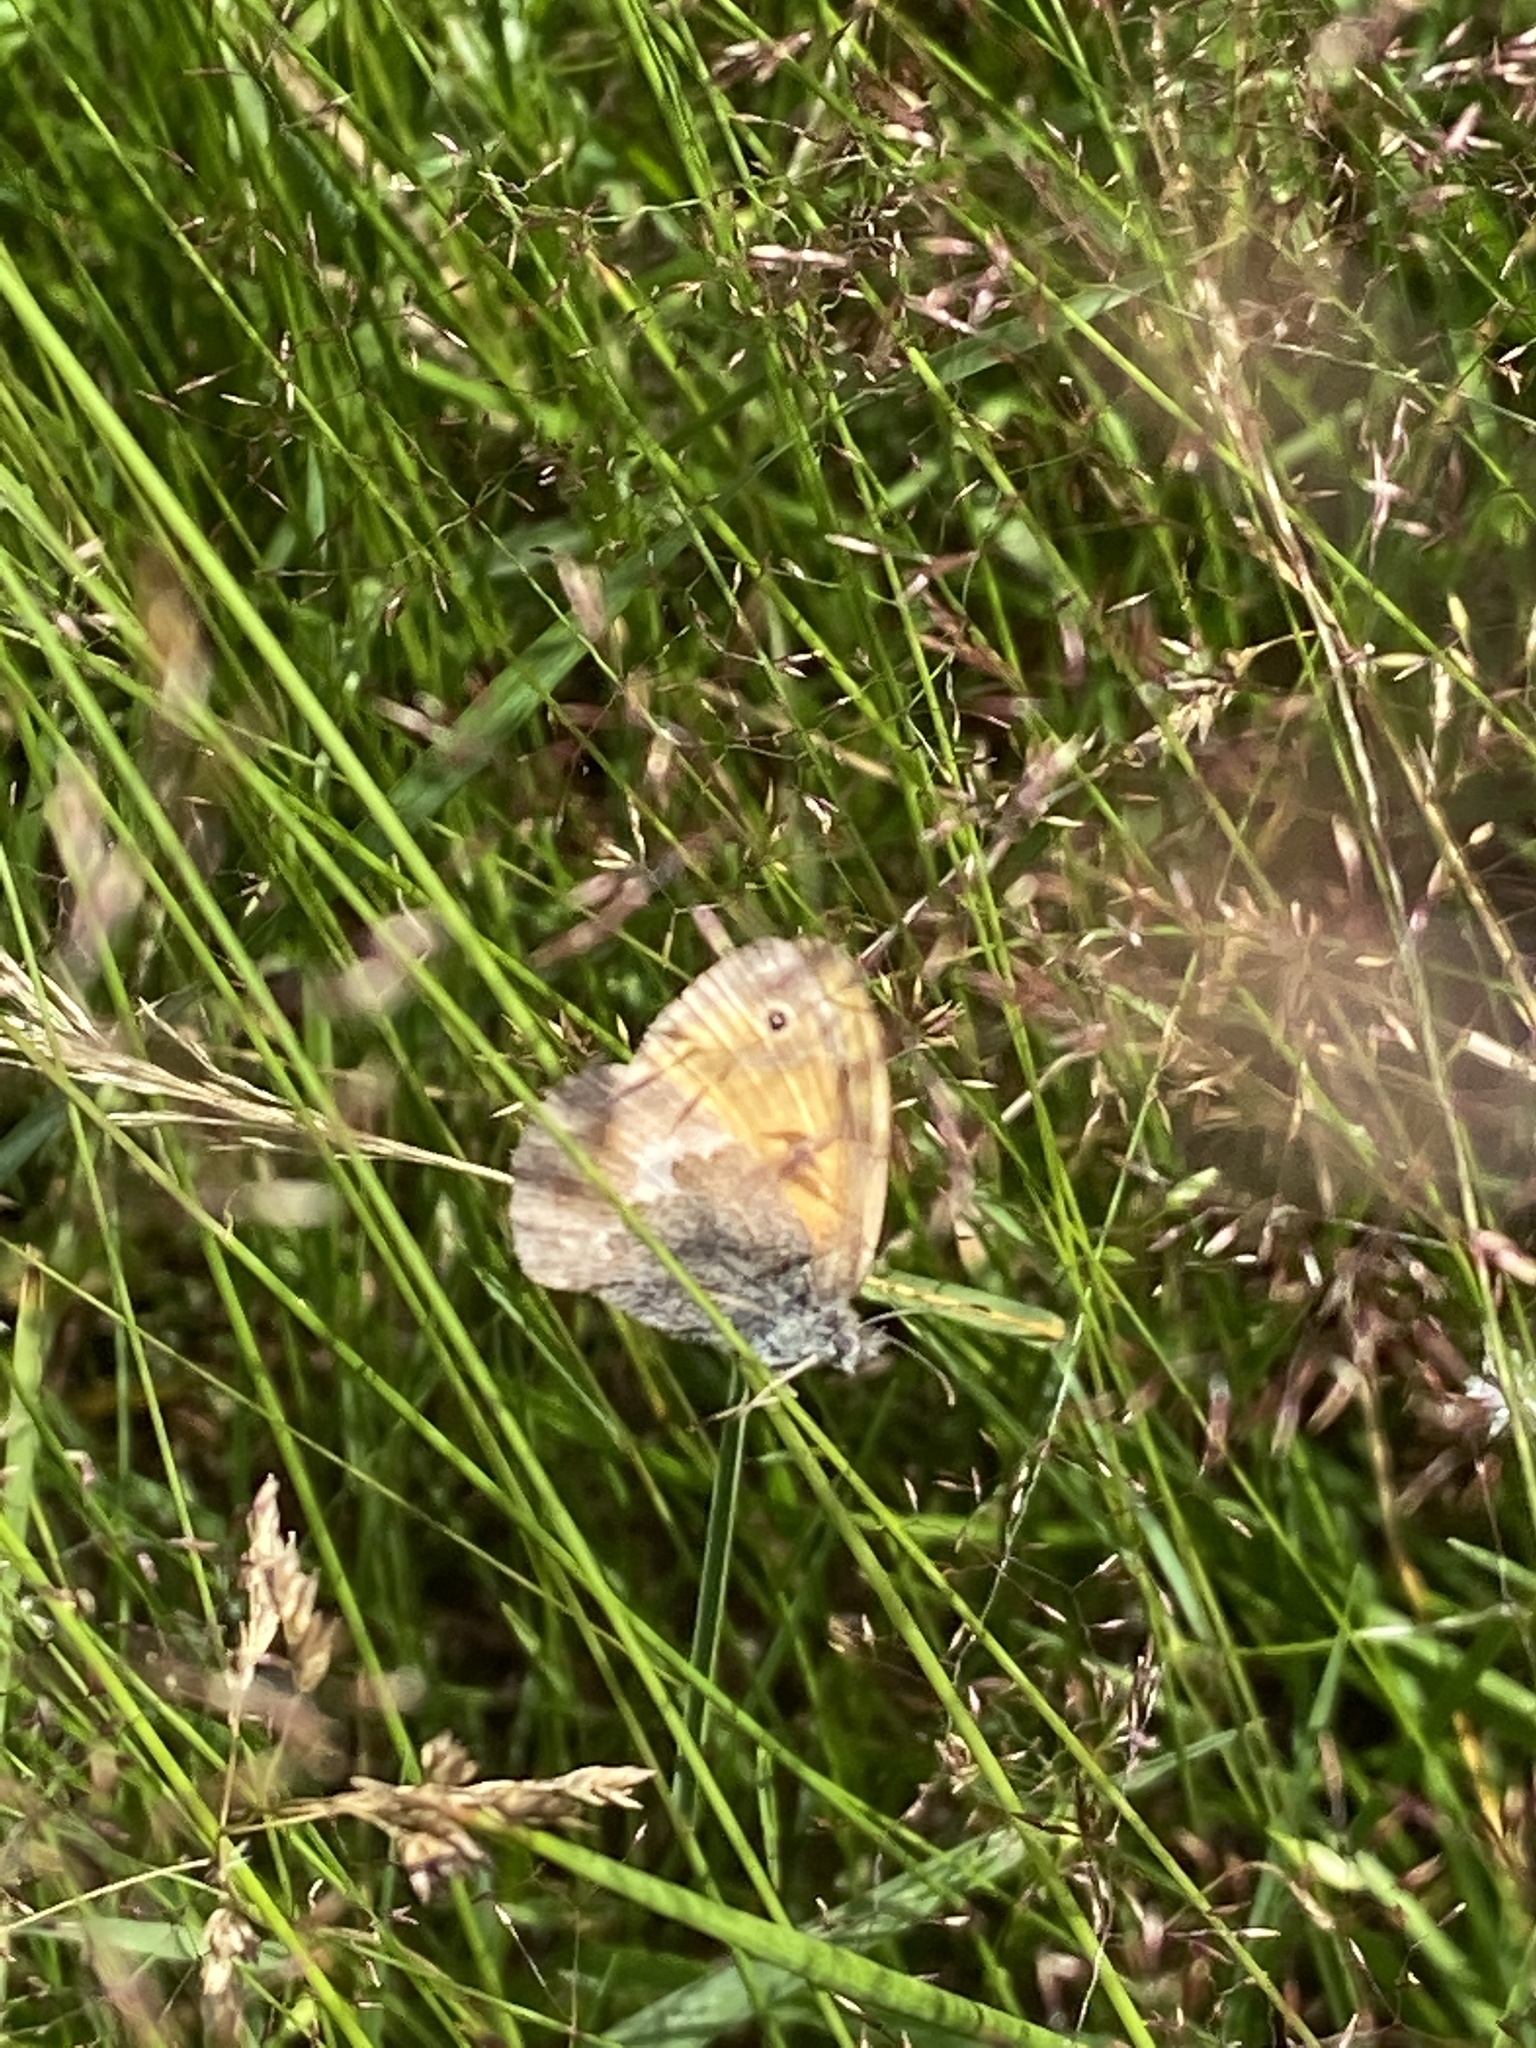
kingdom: Animalia
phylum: Arthropoda
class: Insecta
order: Lepidoptera
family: Nymphalidae
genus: Coenonympha
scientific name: Coenonympha pamphilus
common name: Small heath
